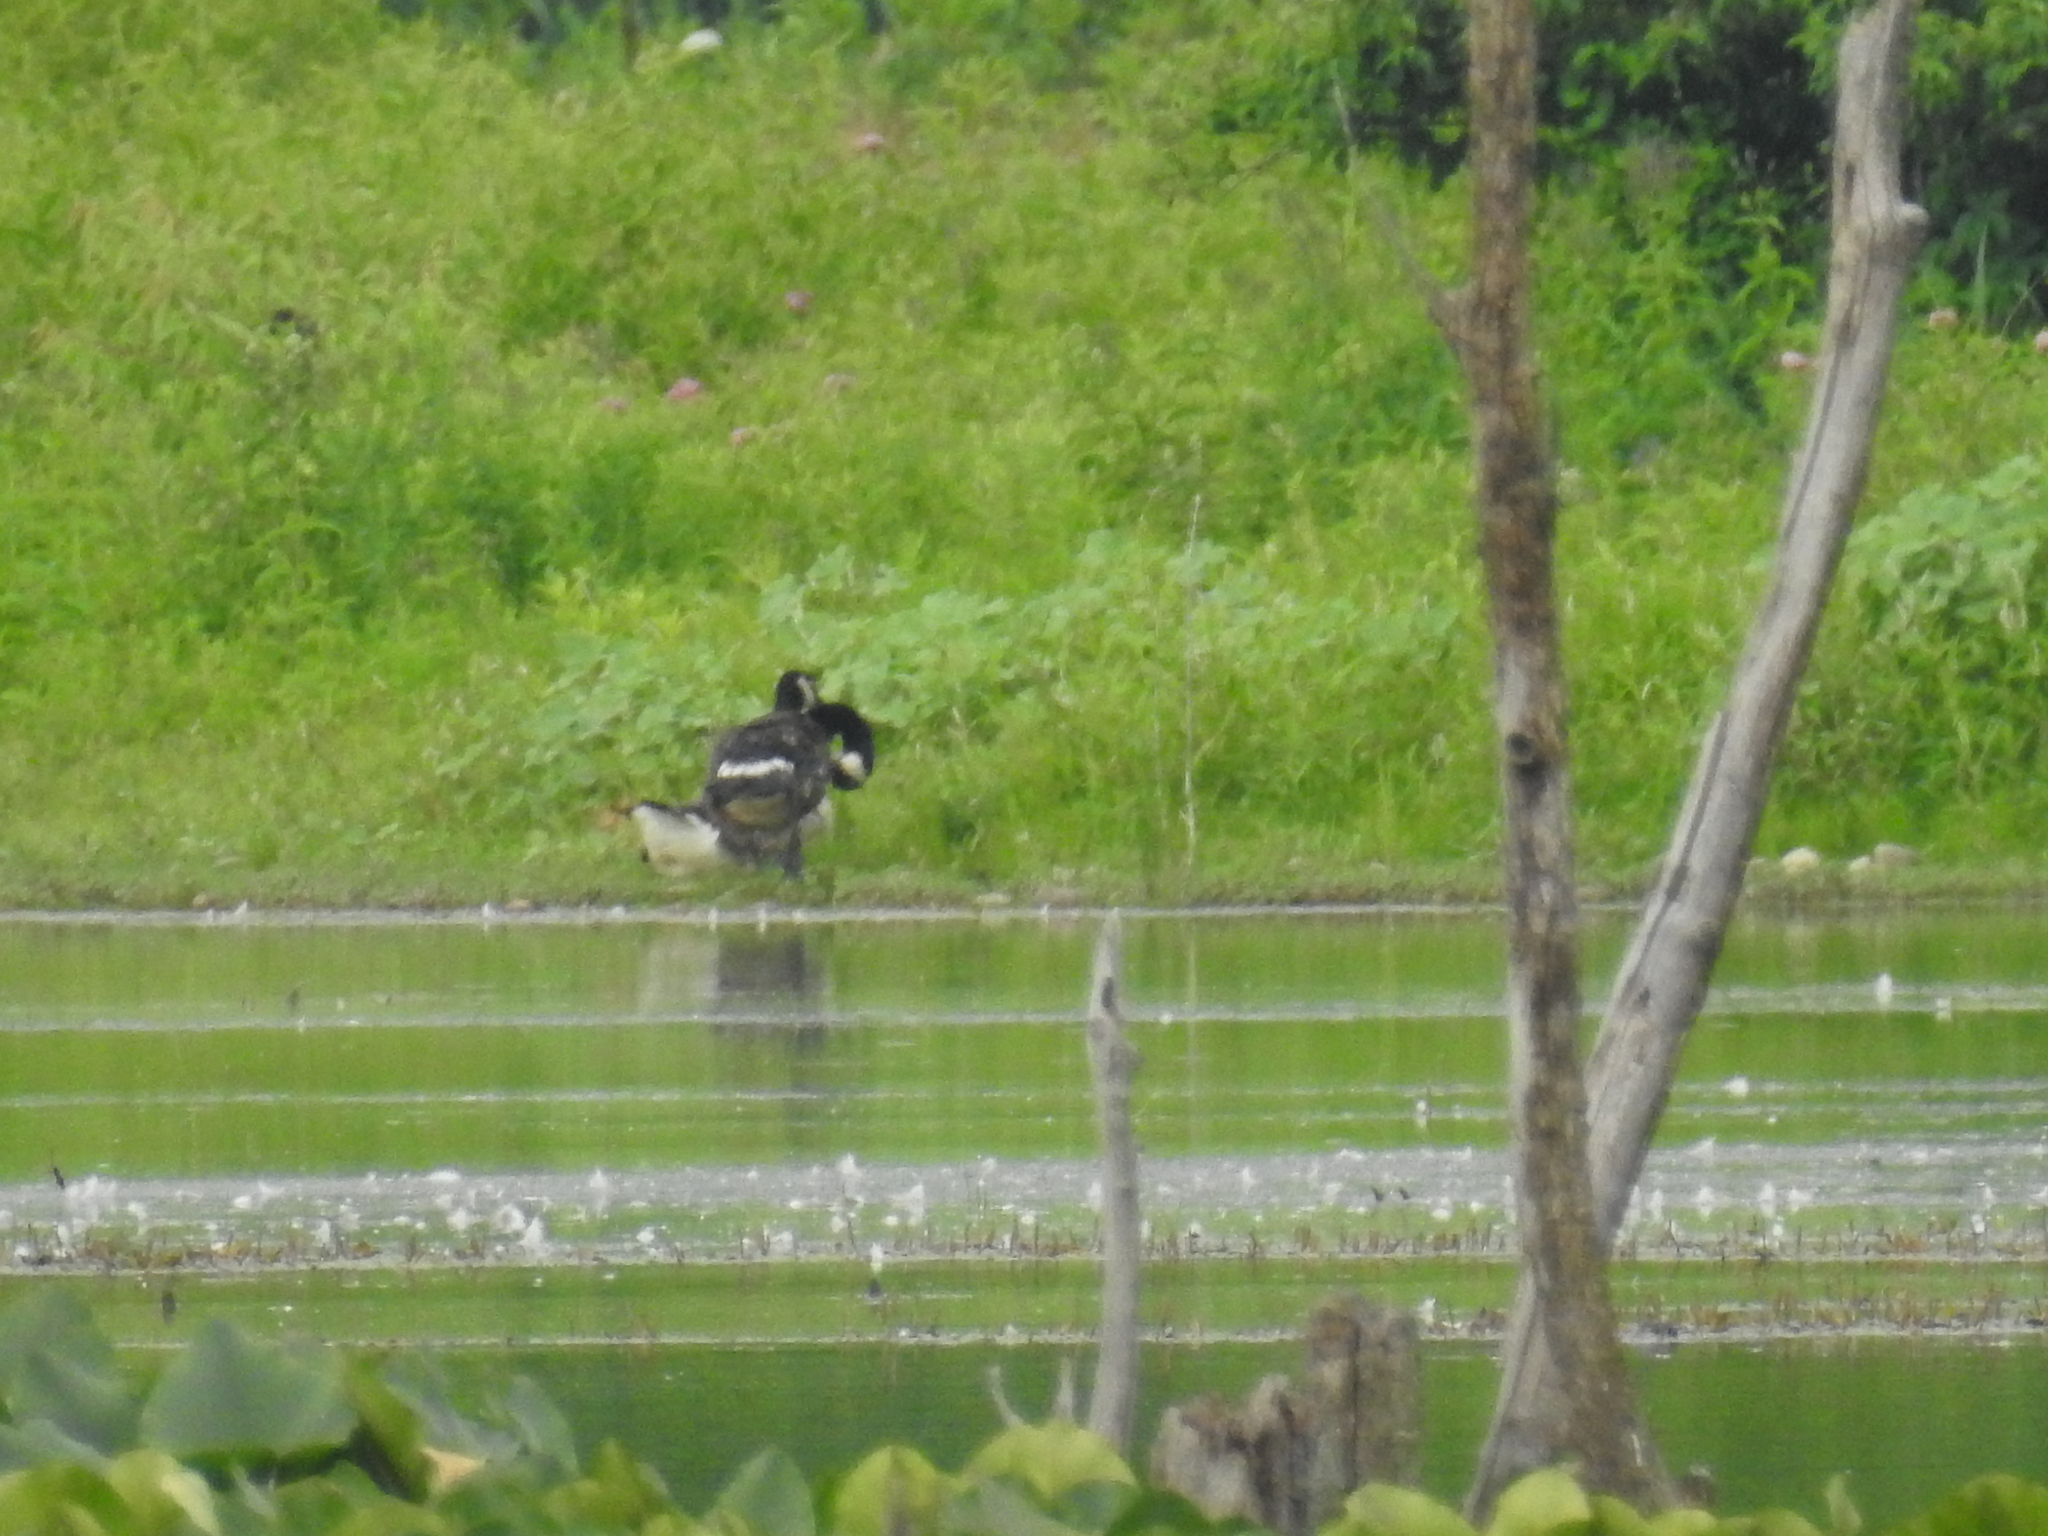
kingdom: Animalia
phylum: Chordata
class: Aves
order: Anseriformes
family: Anatidae
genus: Branta
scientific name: Branta canadensis
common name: Canada goose
